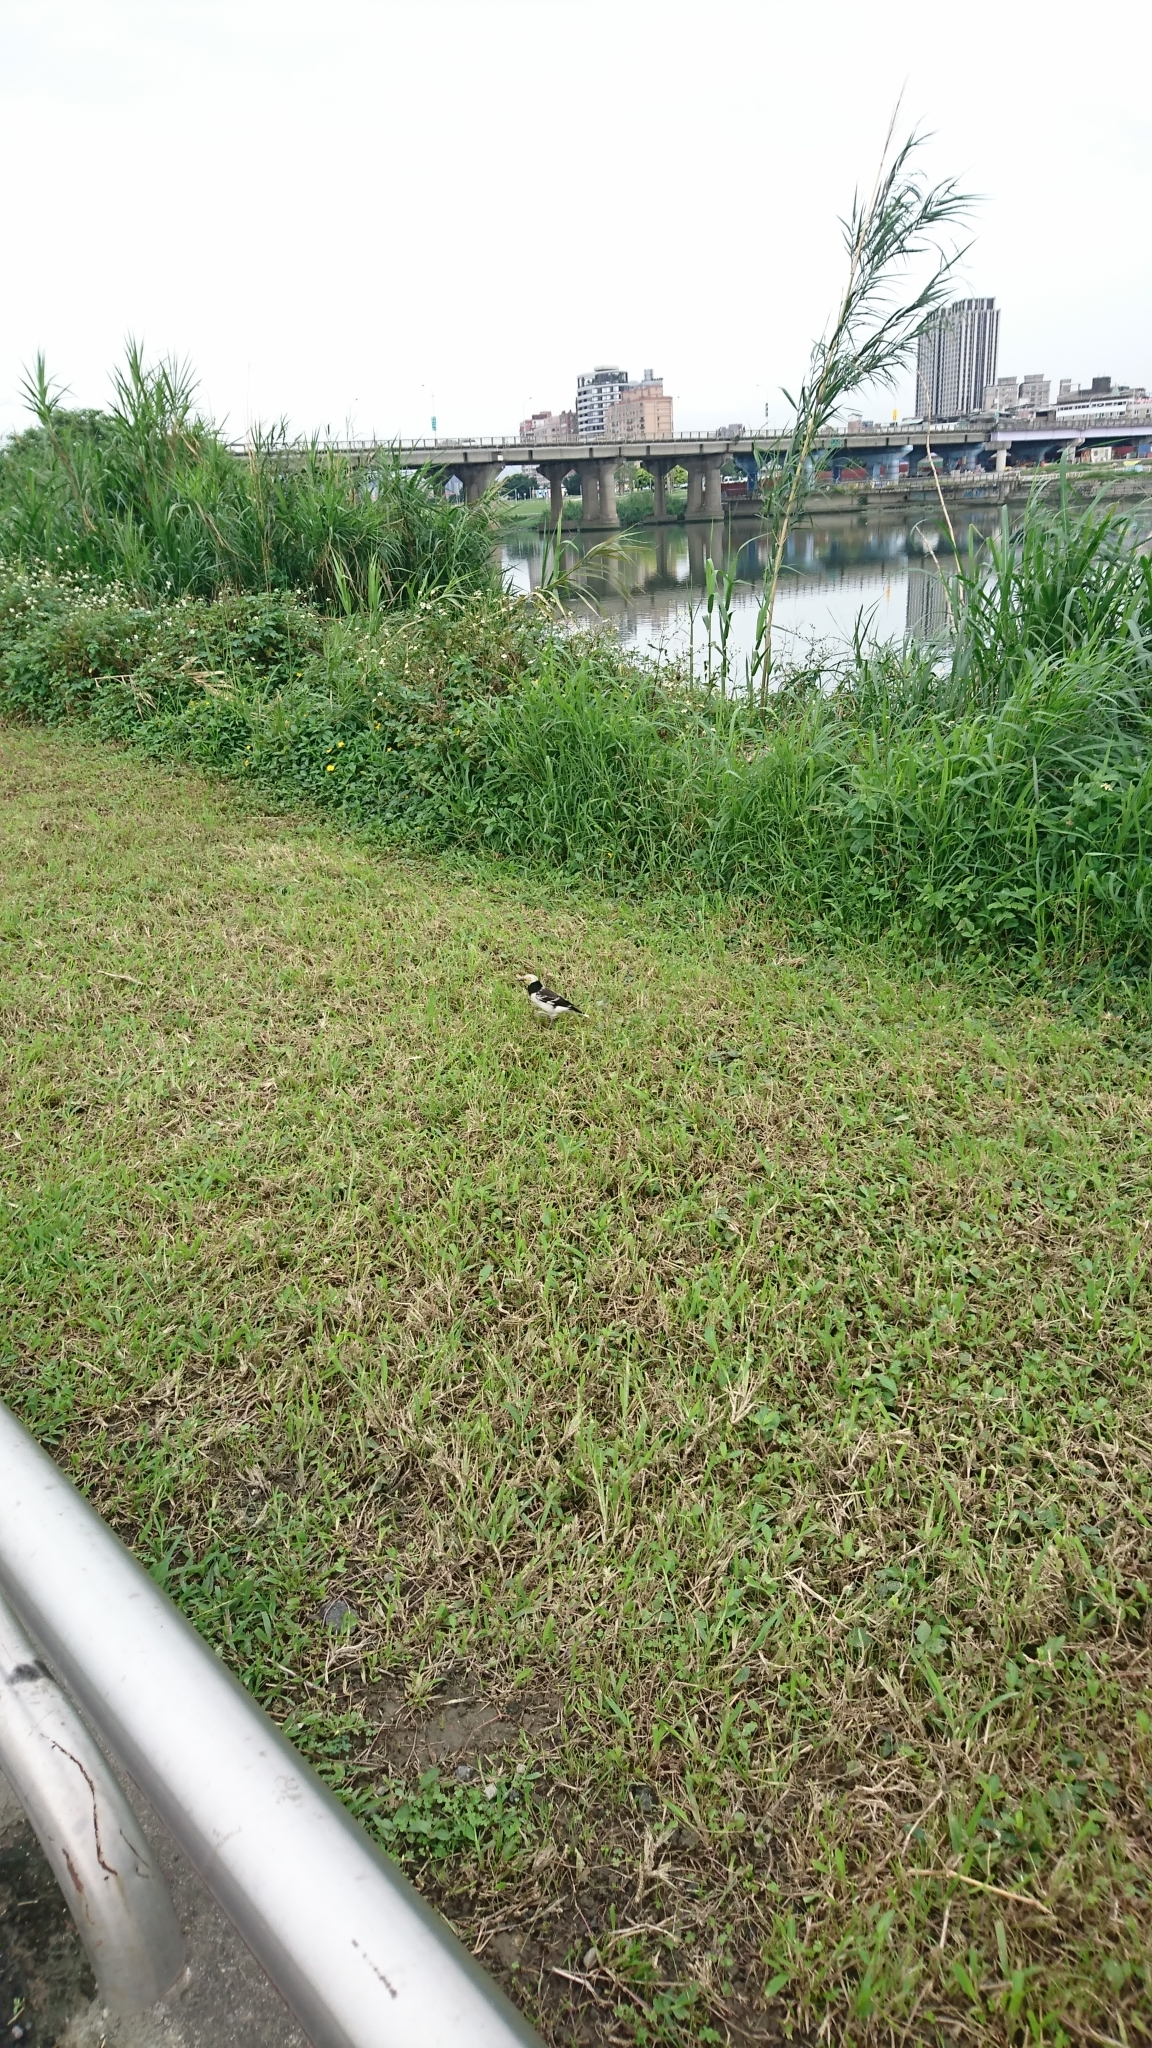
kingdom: Animalia
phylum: Chordata
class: Aves
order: Passeriformes
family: Sturnidae
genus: Gracupica
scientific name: Gracupica nigricollis
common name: Black-collared starling
